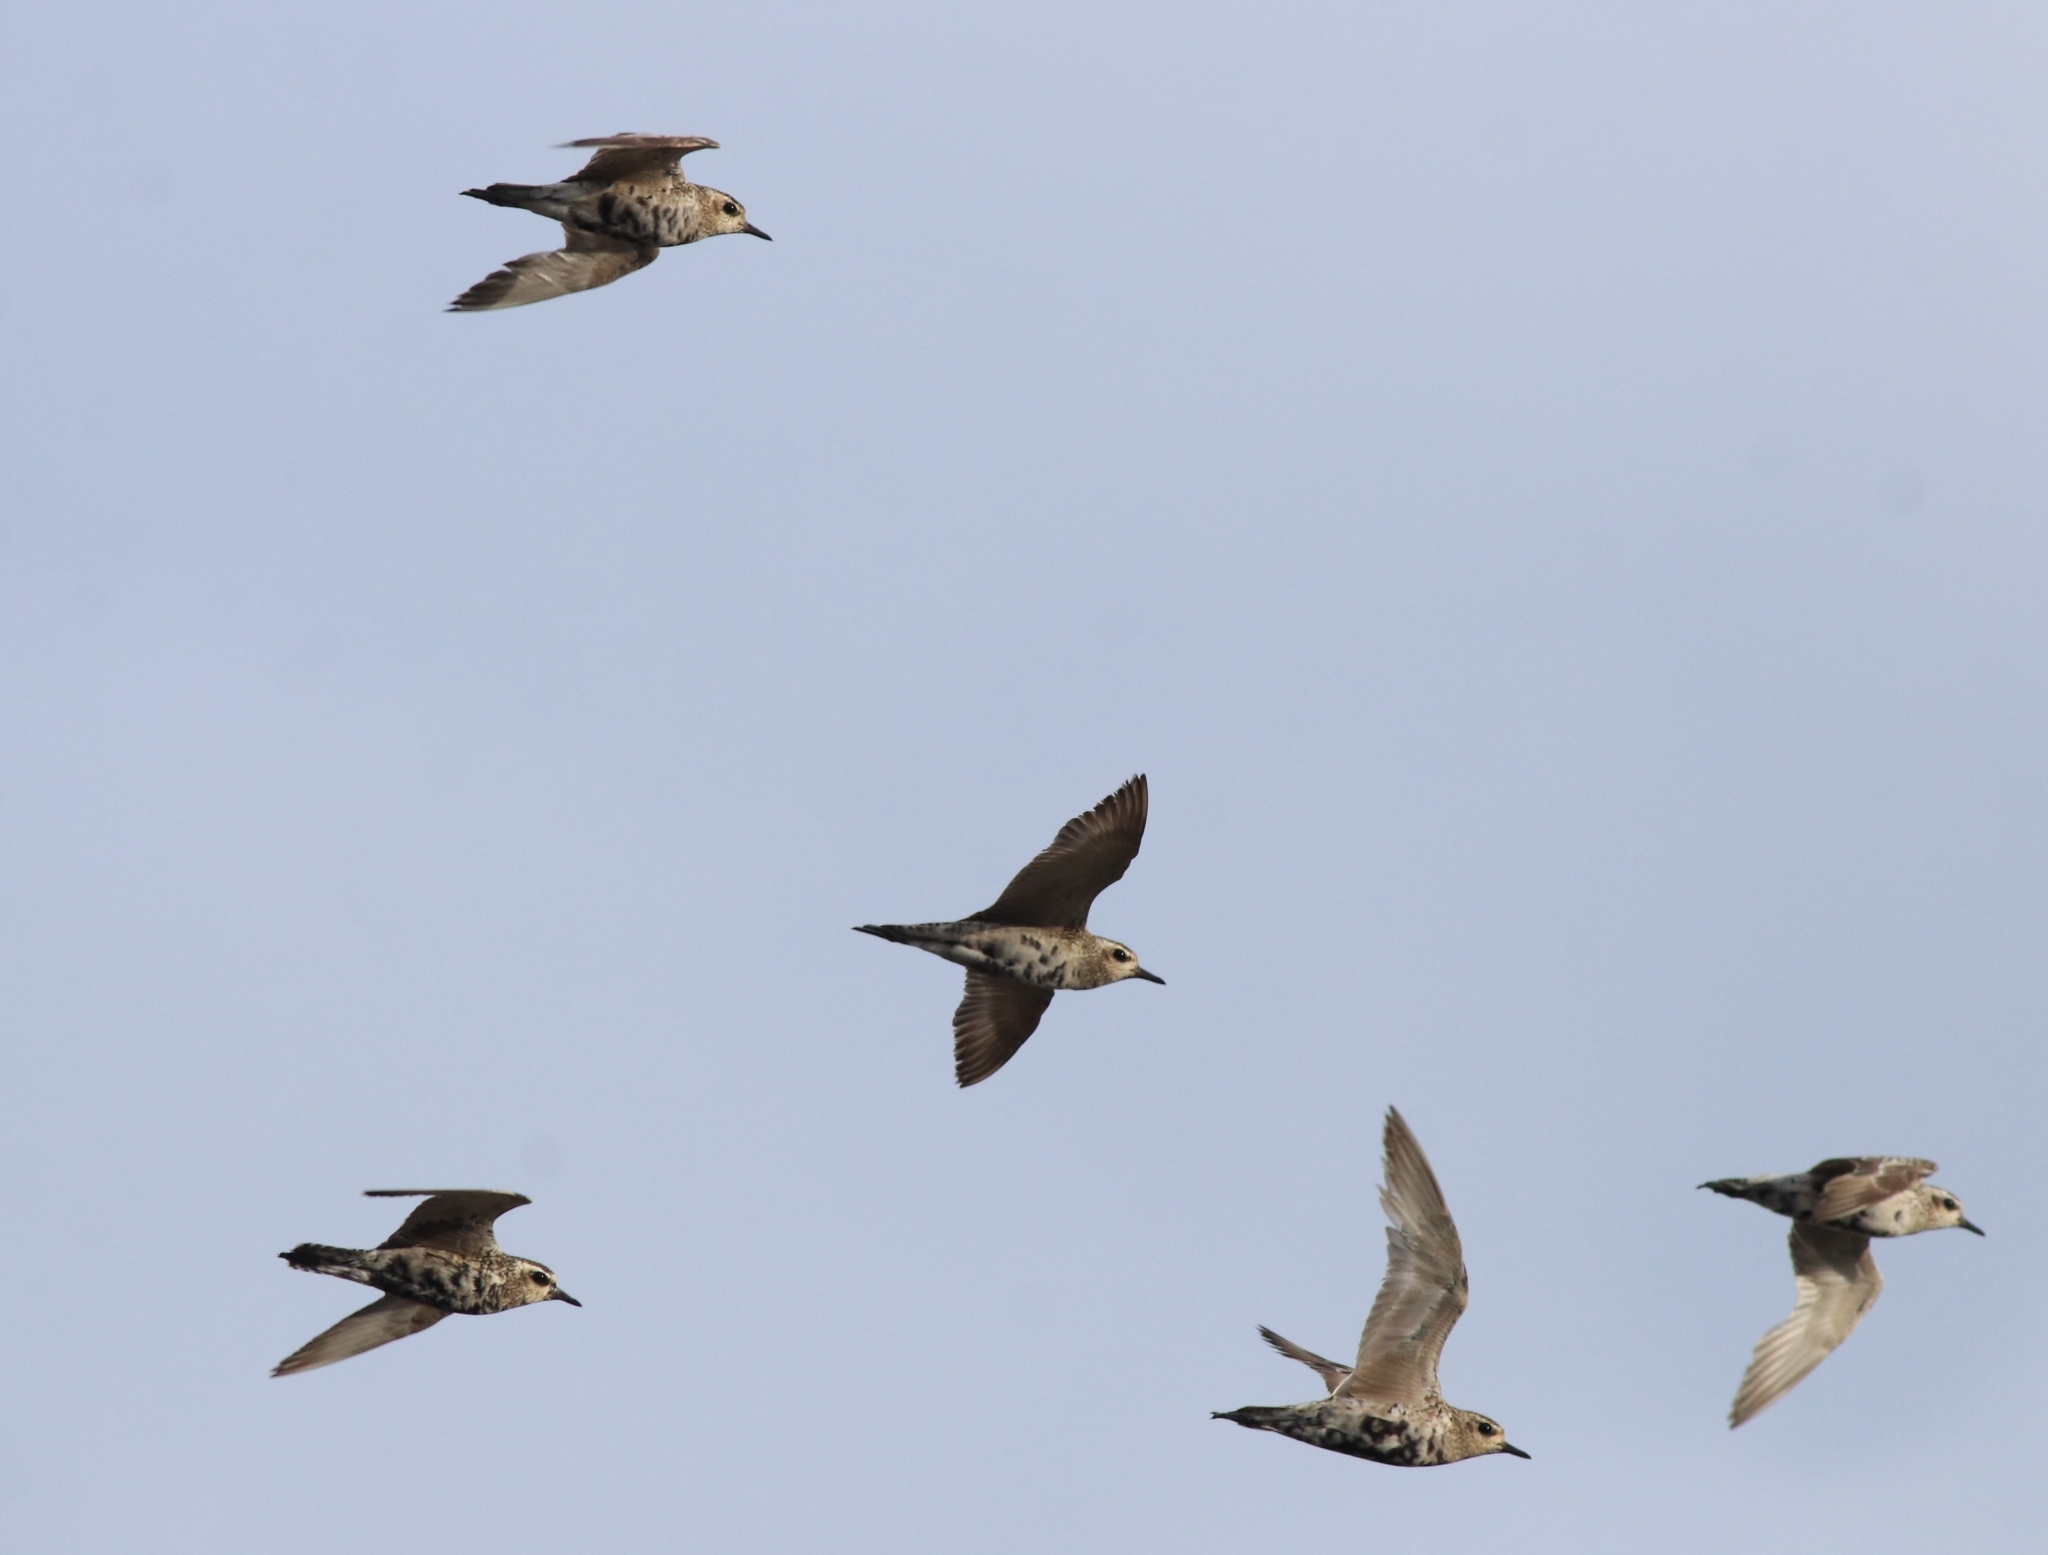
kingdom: Animalia
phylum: Chordata
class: Aves
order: Charadriiformes
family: Charadriidae
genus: Pluvialis
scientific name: Pluvialis fulva
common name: Pacific golden plover
